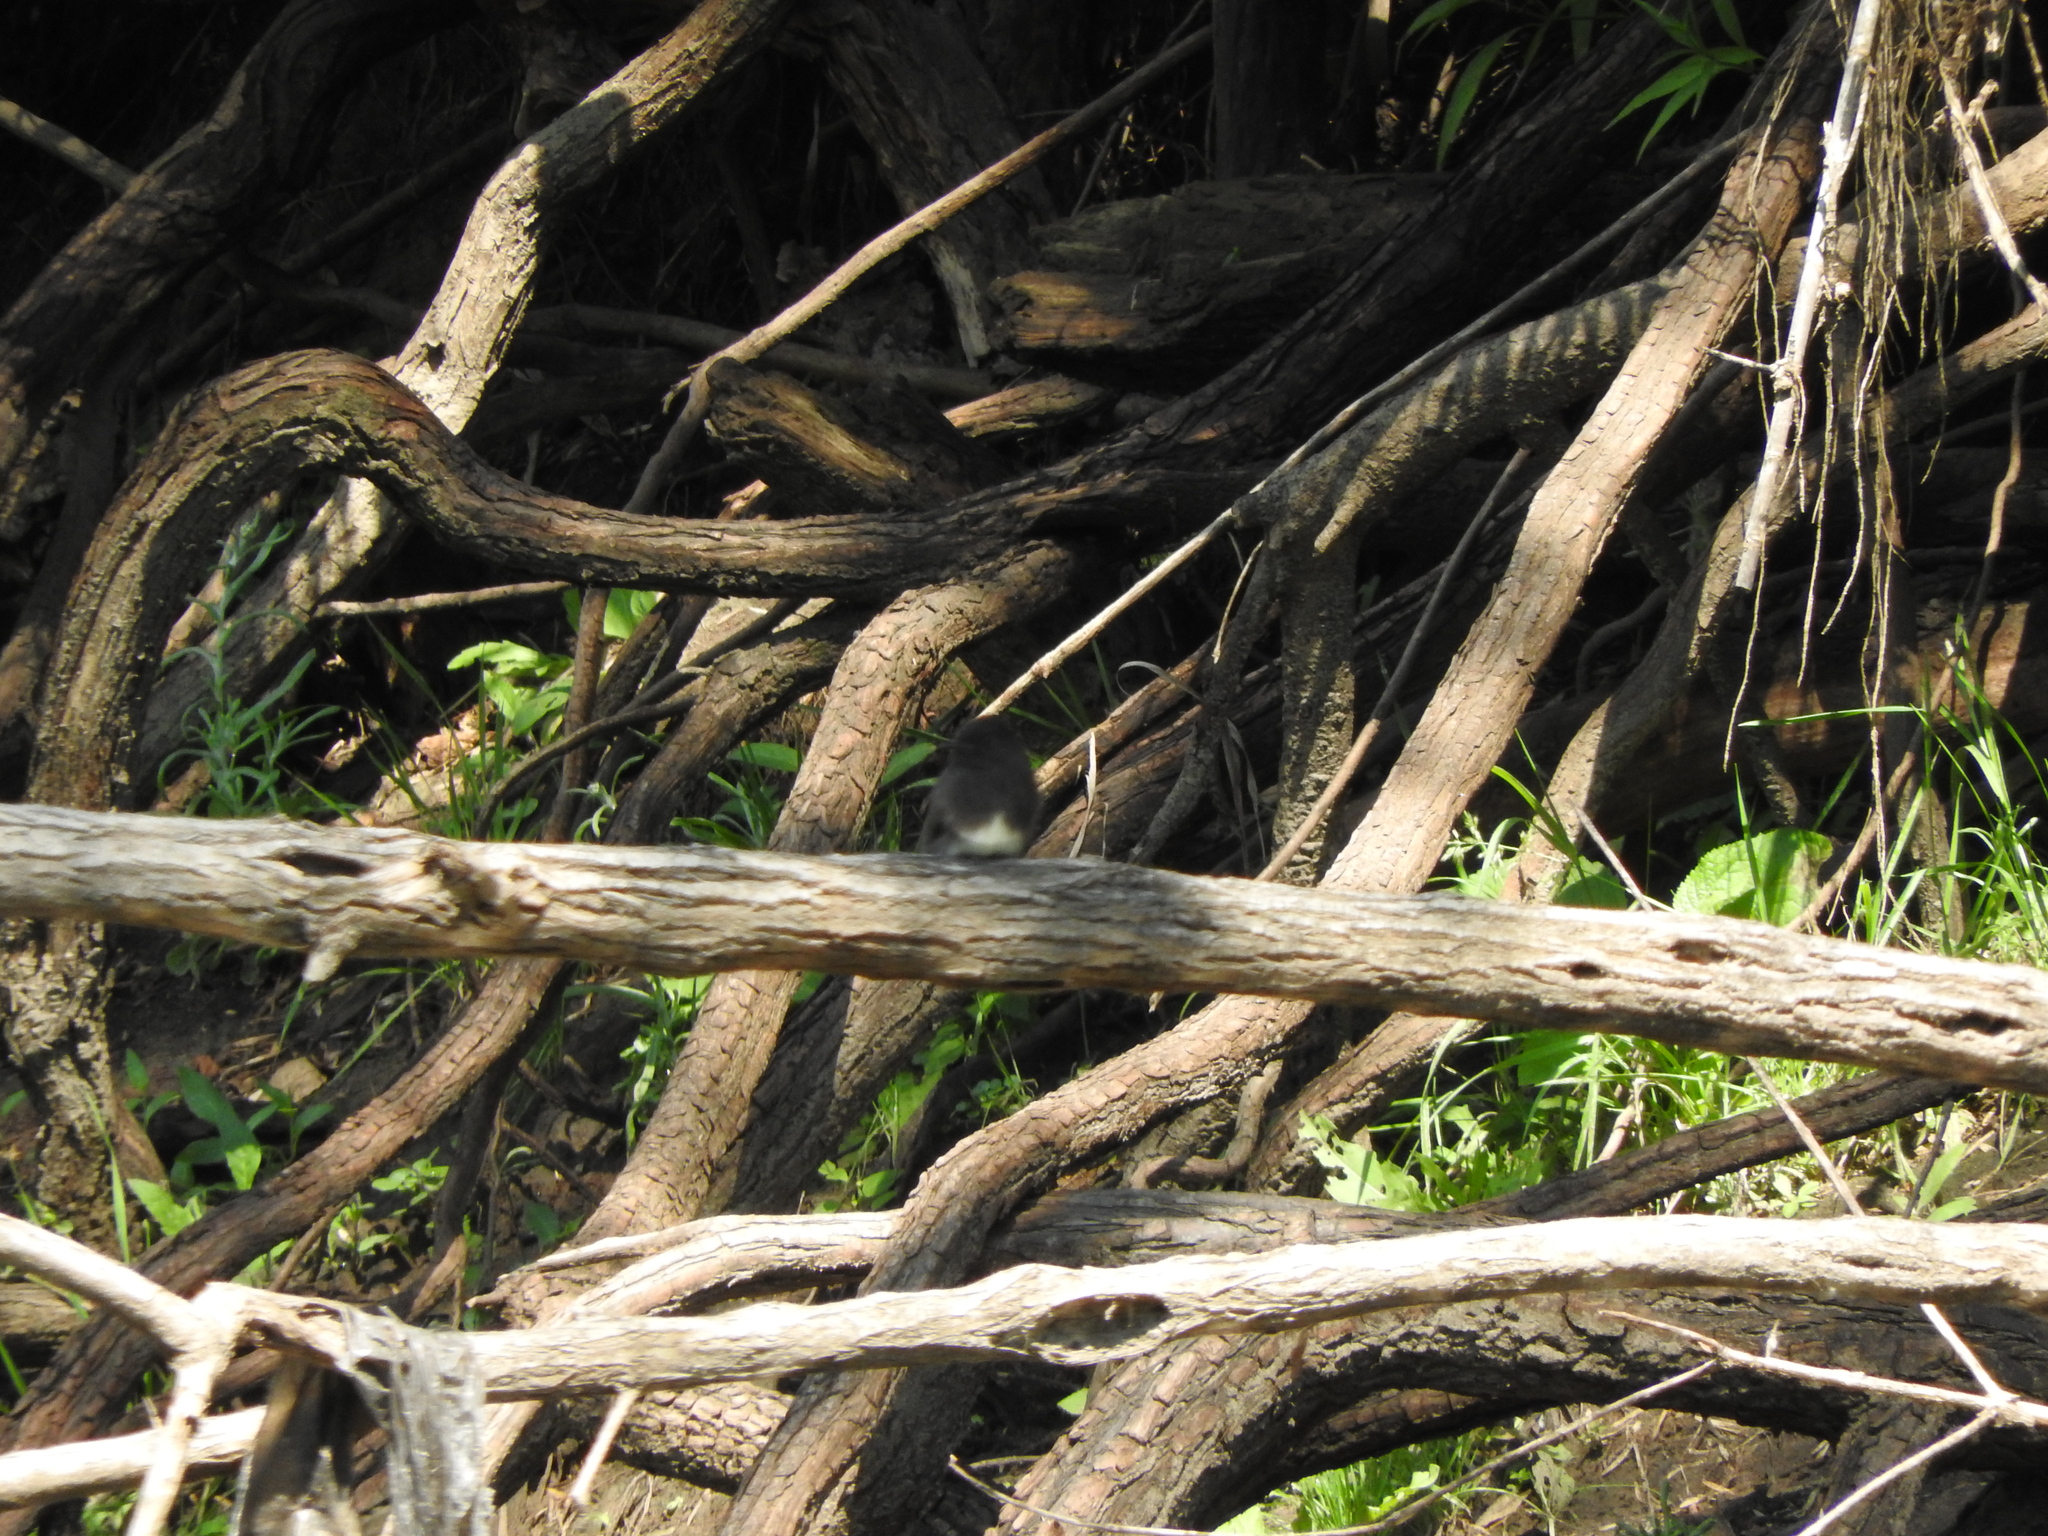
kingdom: Animalia
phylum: Chordata
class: Aves
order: Passeriformes
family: Tyrannidae
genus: Sayornis
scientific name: Sayornis nigricans
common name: Black phoebe
